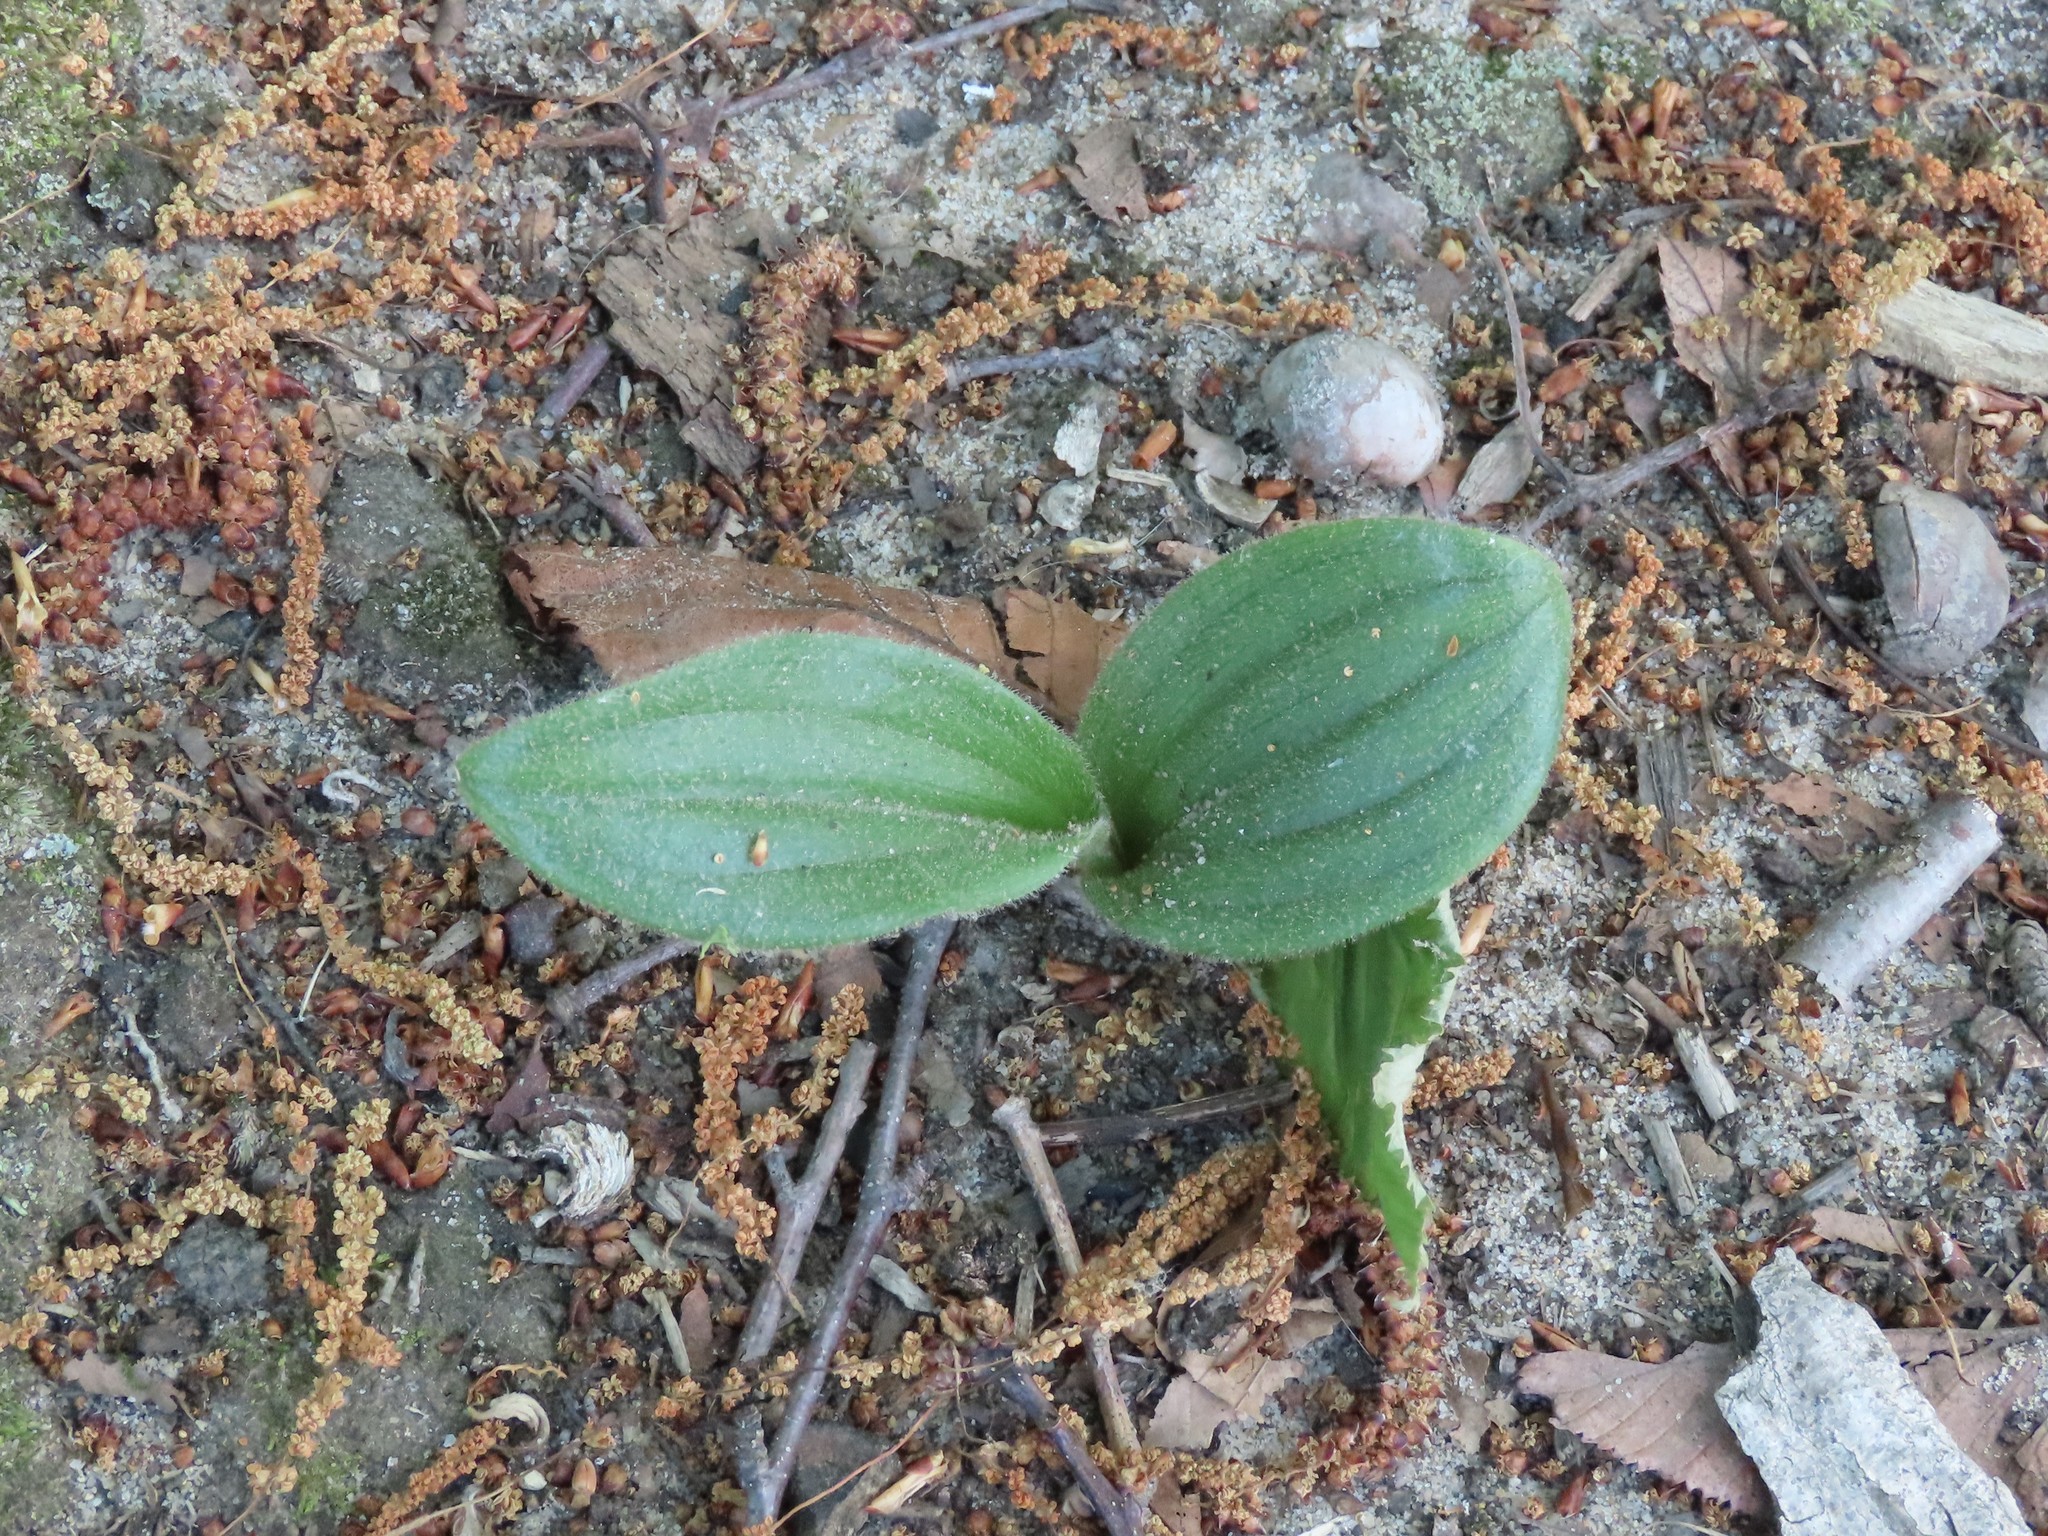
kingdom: Plantae
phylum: Tracheophyta
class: Liliopsida
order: Asparagales
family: Orchidaceae
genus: Cypripedium
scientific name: Cypripedium acaule
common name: Pink lady's-slipper
